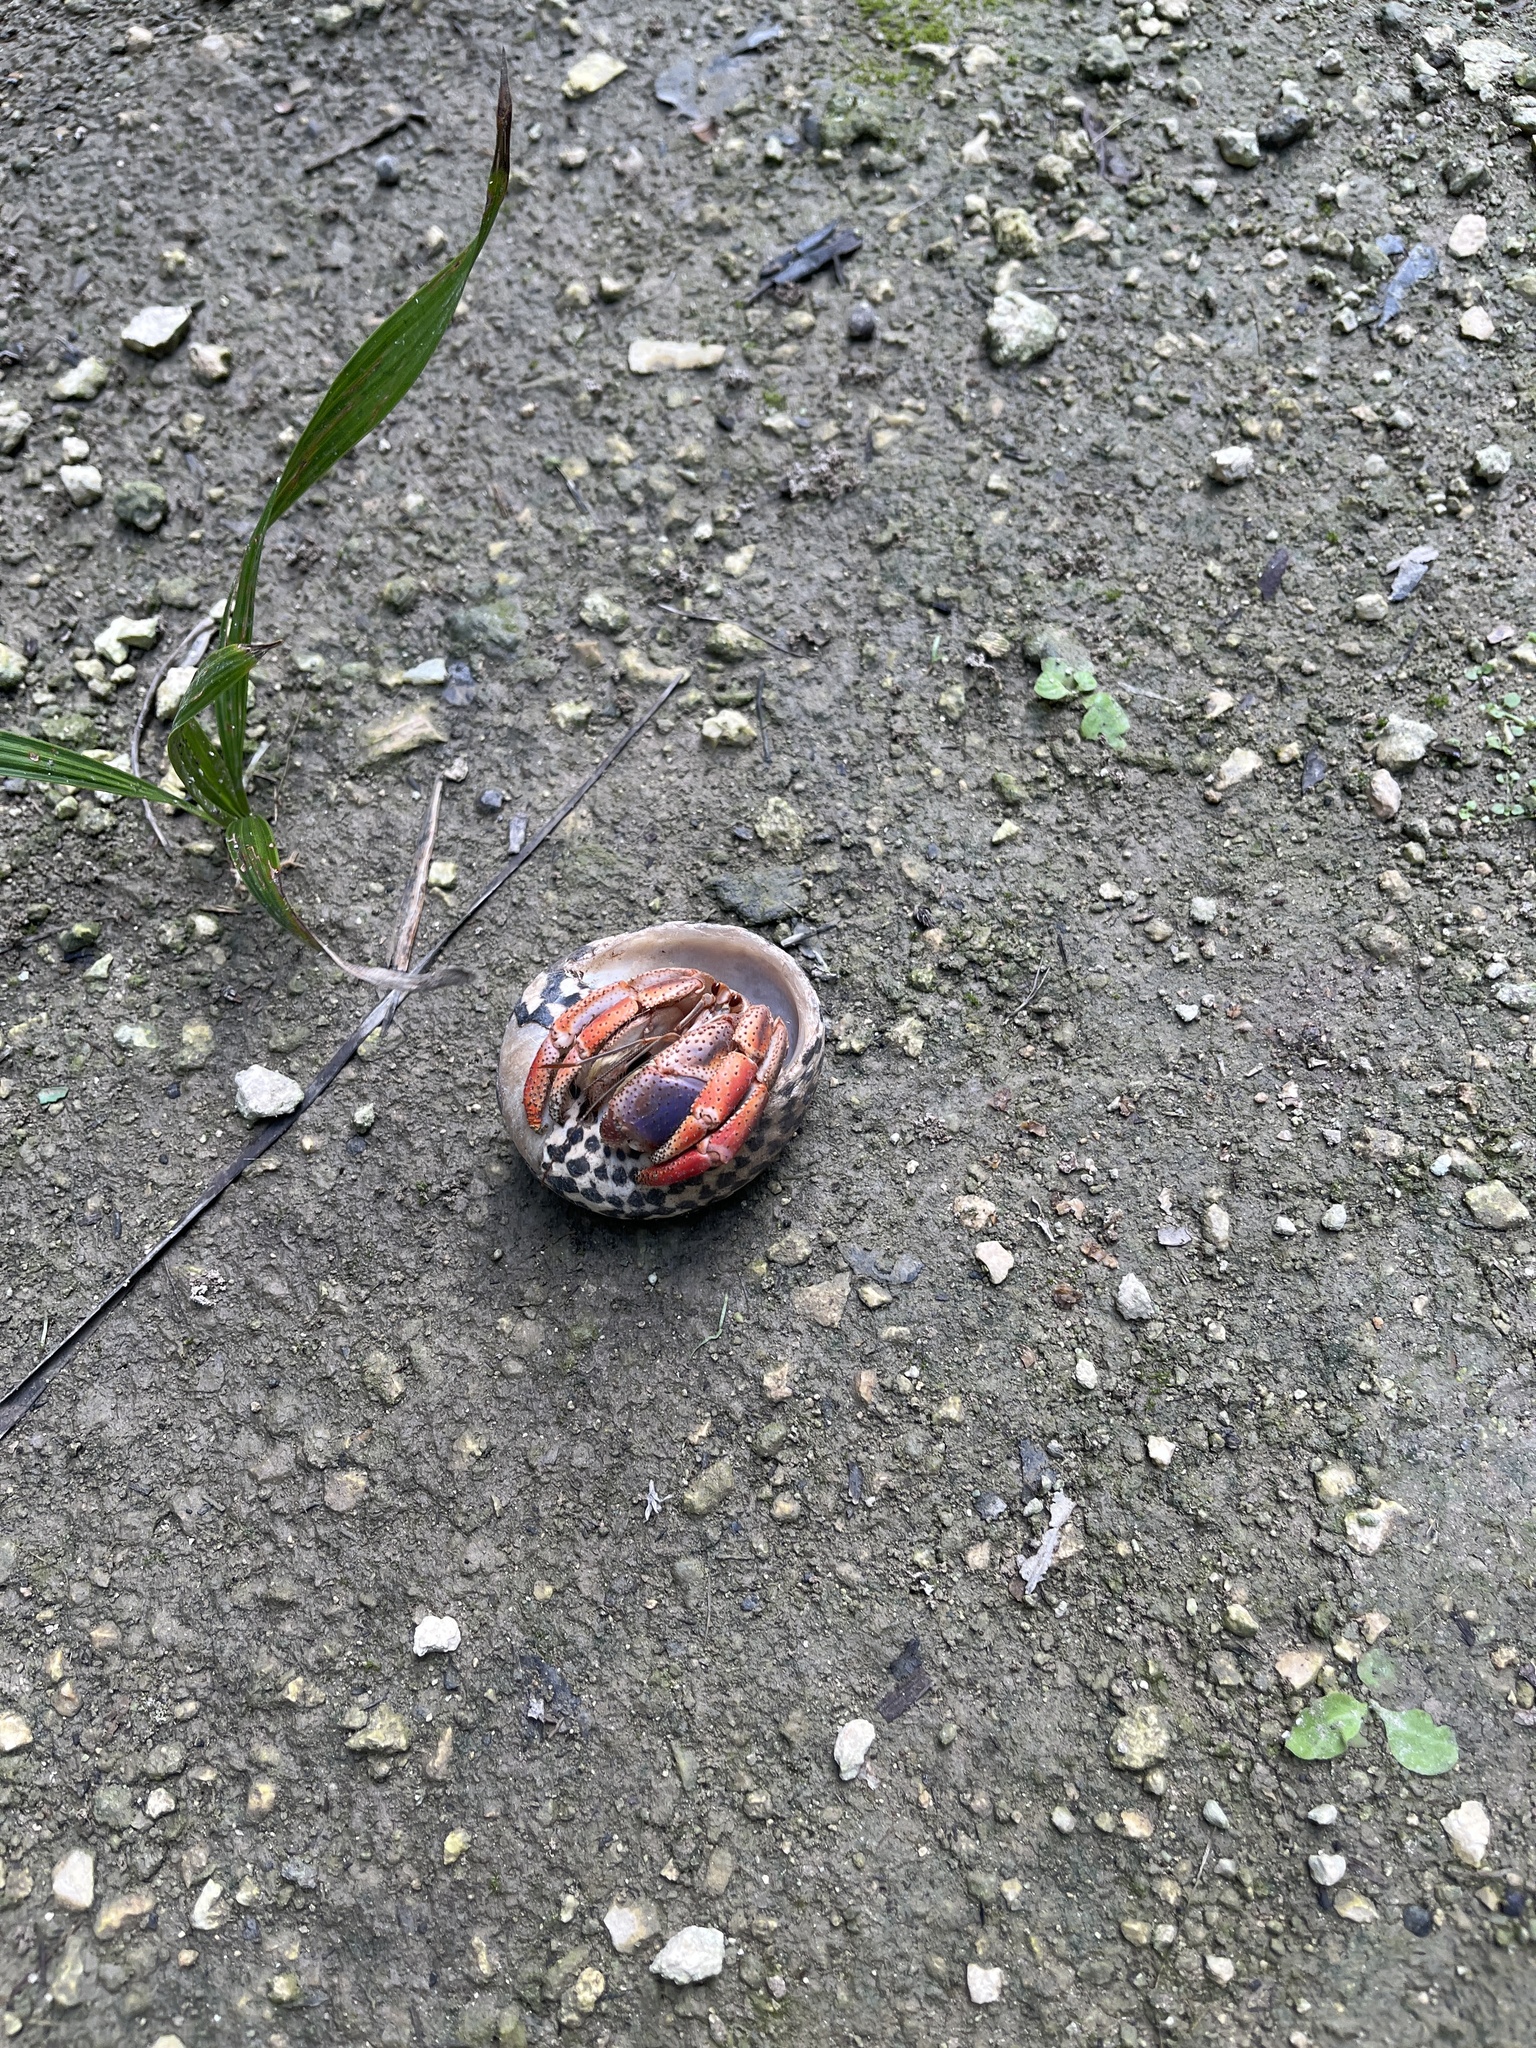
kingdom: Animalia
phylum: Arthropoda
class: Malacostraca
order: Decapoda
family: Coenobitidae
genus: Coenobita
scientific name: Coenobita clypeatus
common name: Caribbean hermit crab
